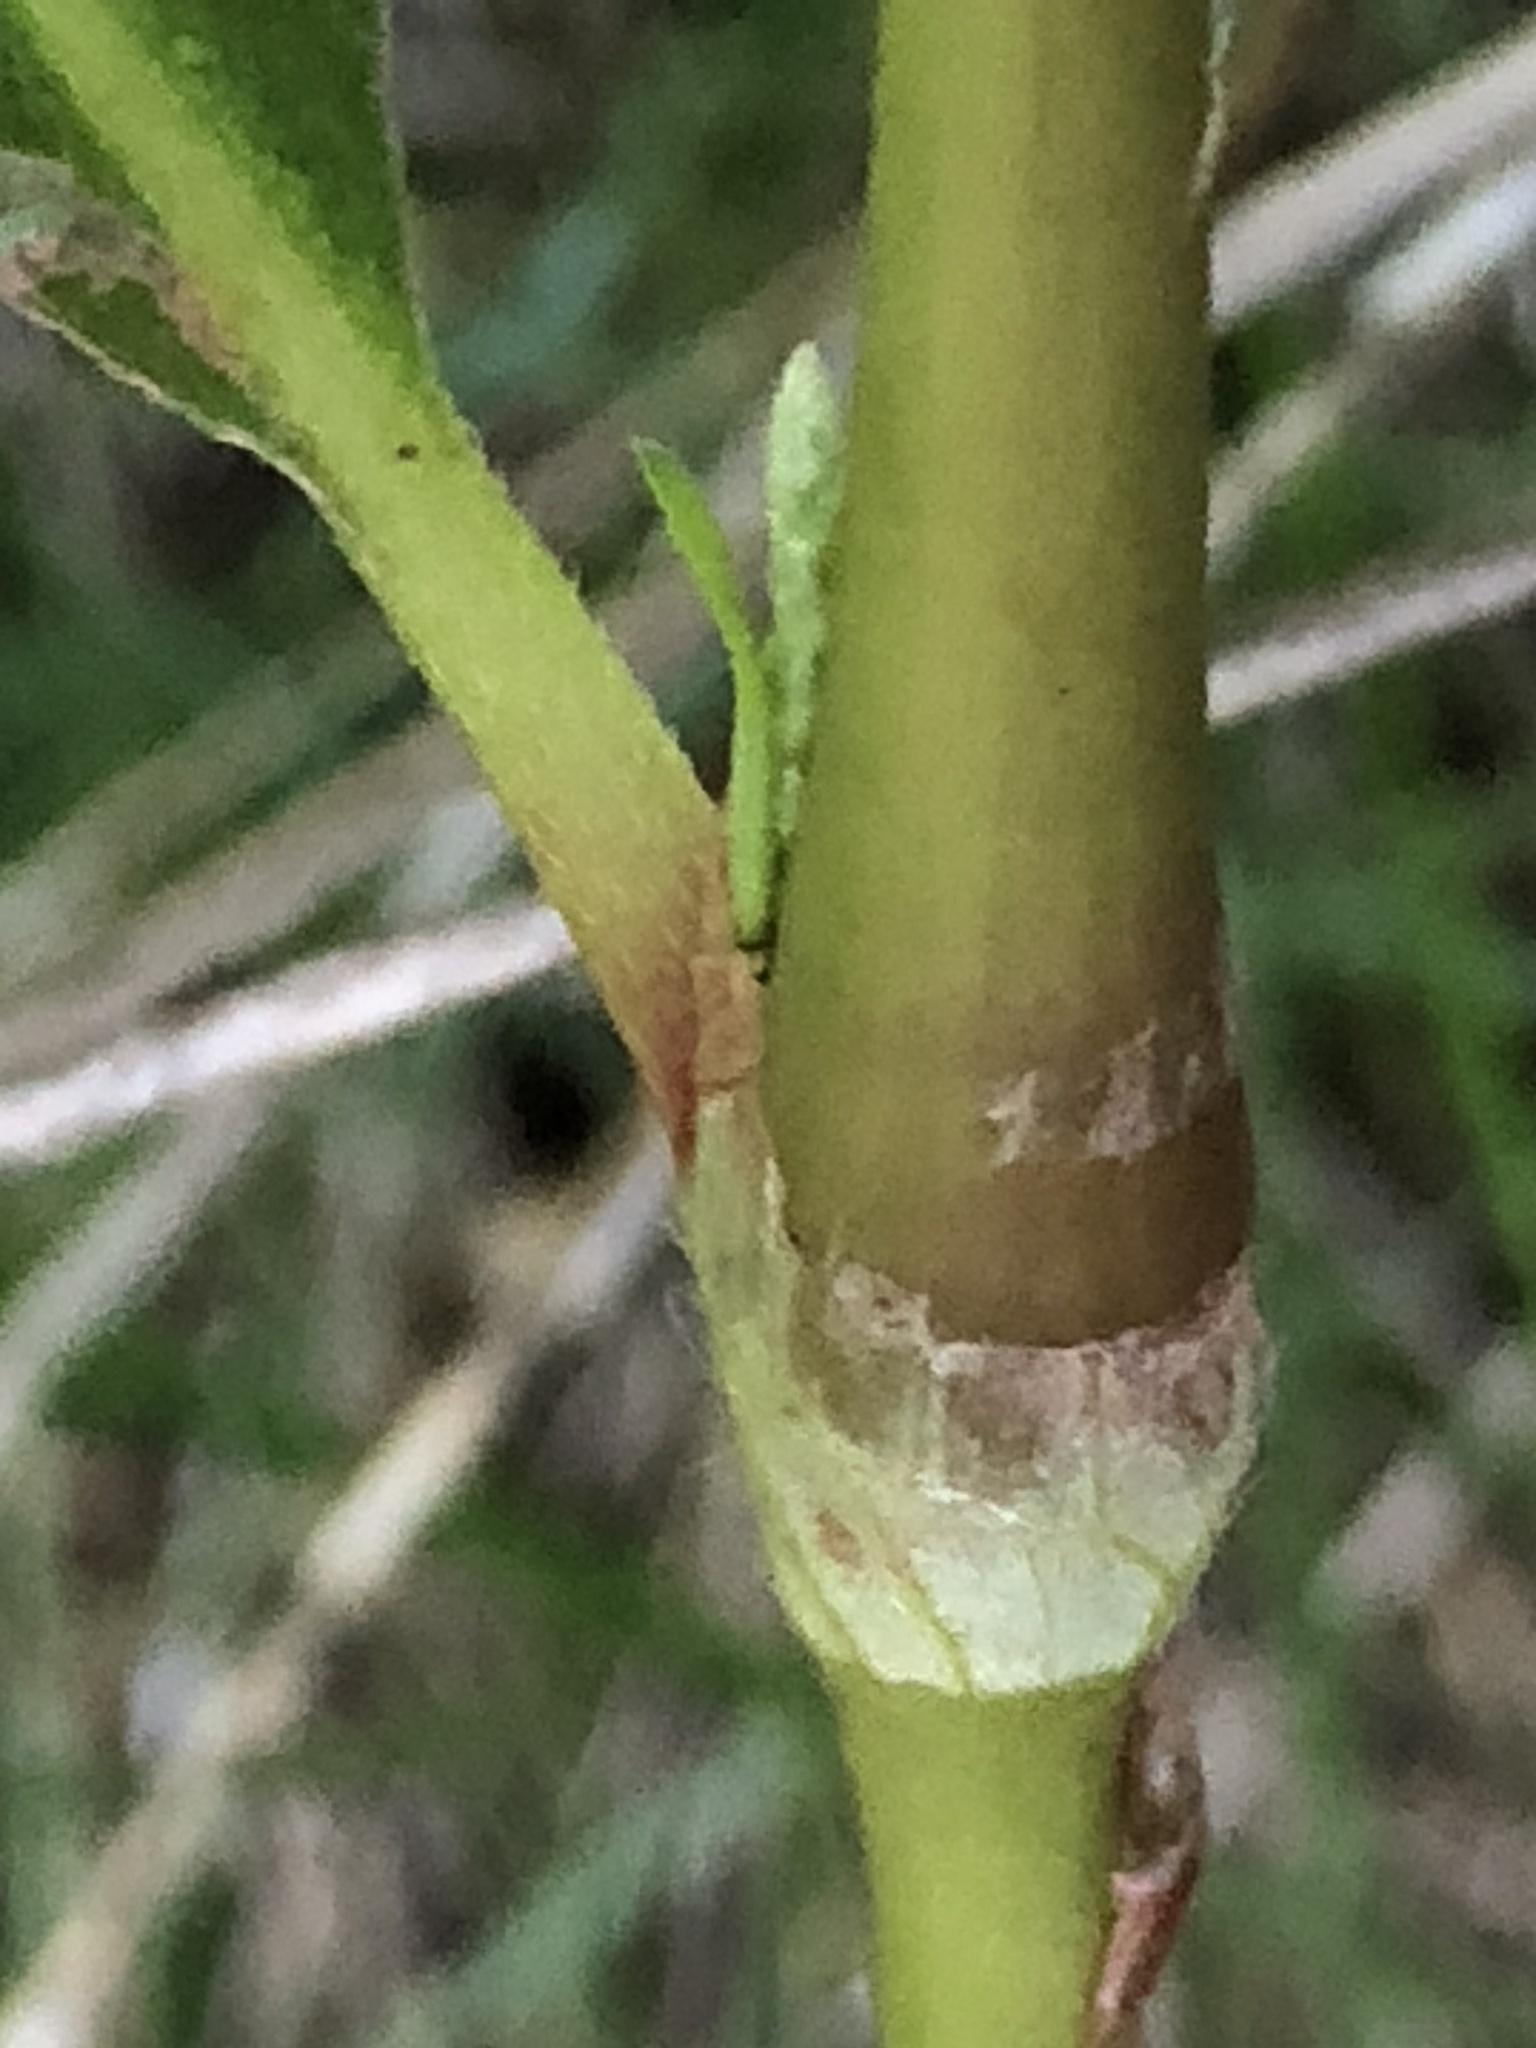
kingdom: Plantae
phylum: Tracheophyta
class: Magnoliopsida
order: Caryophyllales
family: Polygonaceae
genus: Persicaria
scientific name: Persicaria extremiorientalis
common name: Far-eastern smartweed
